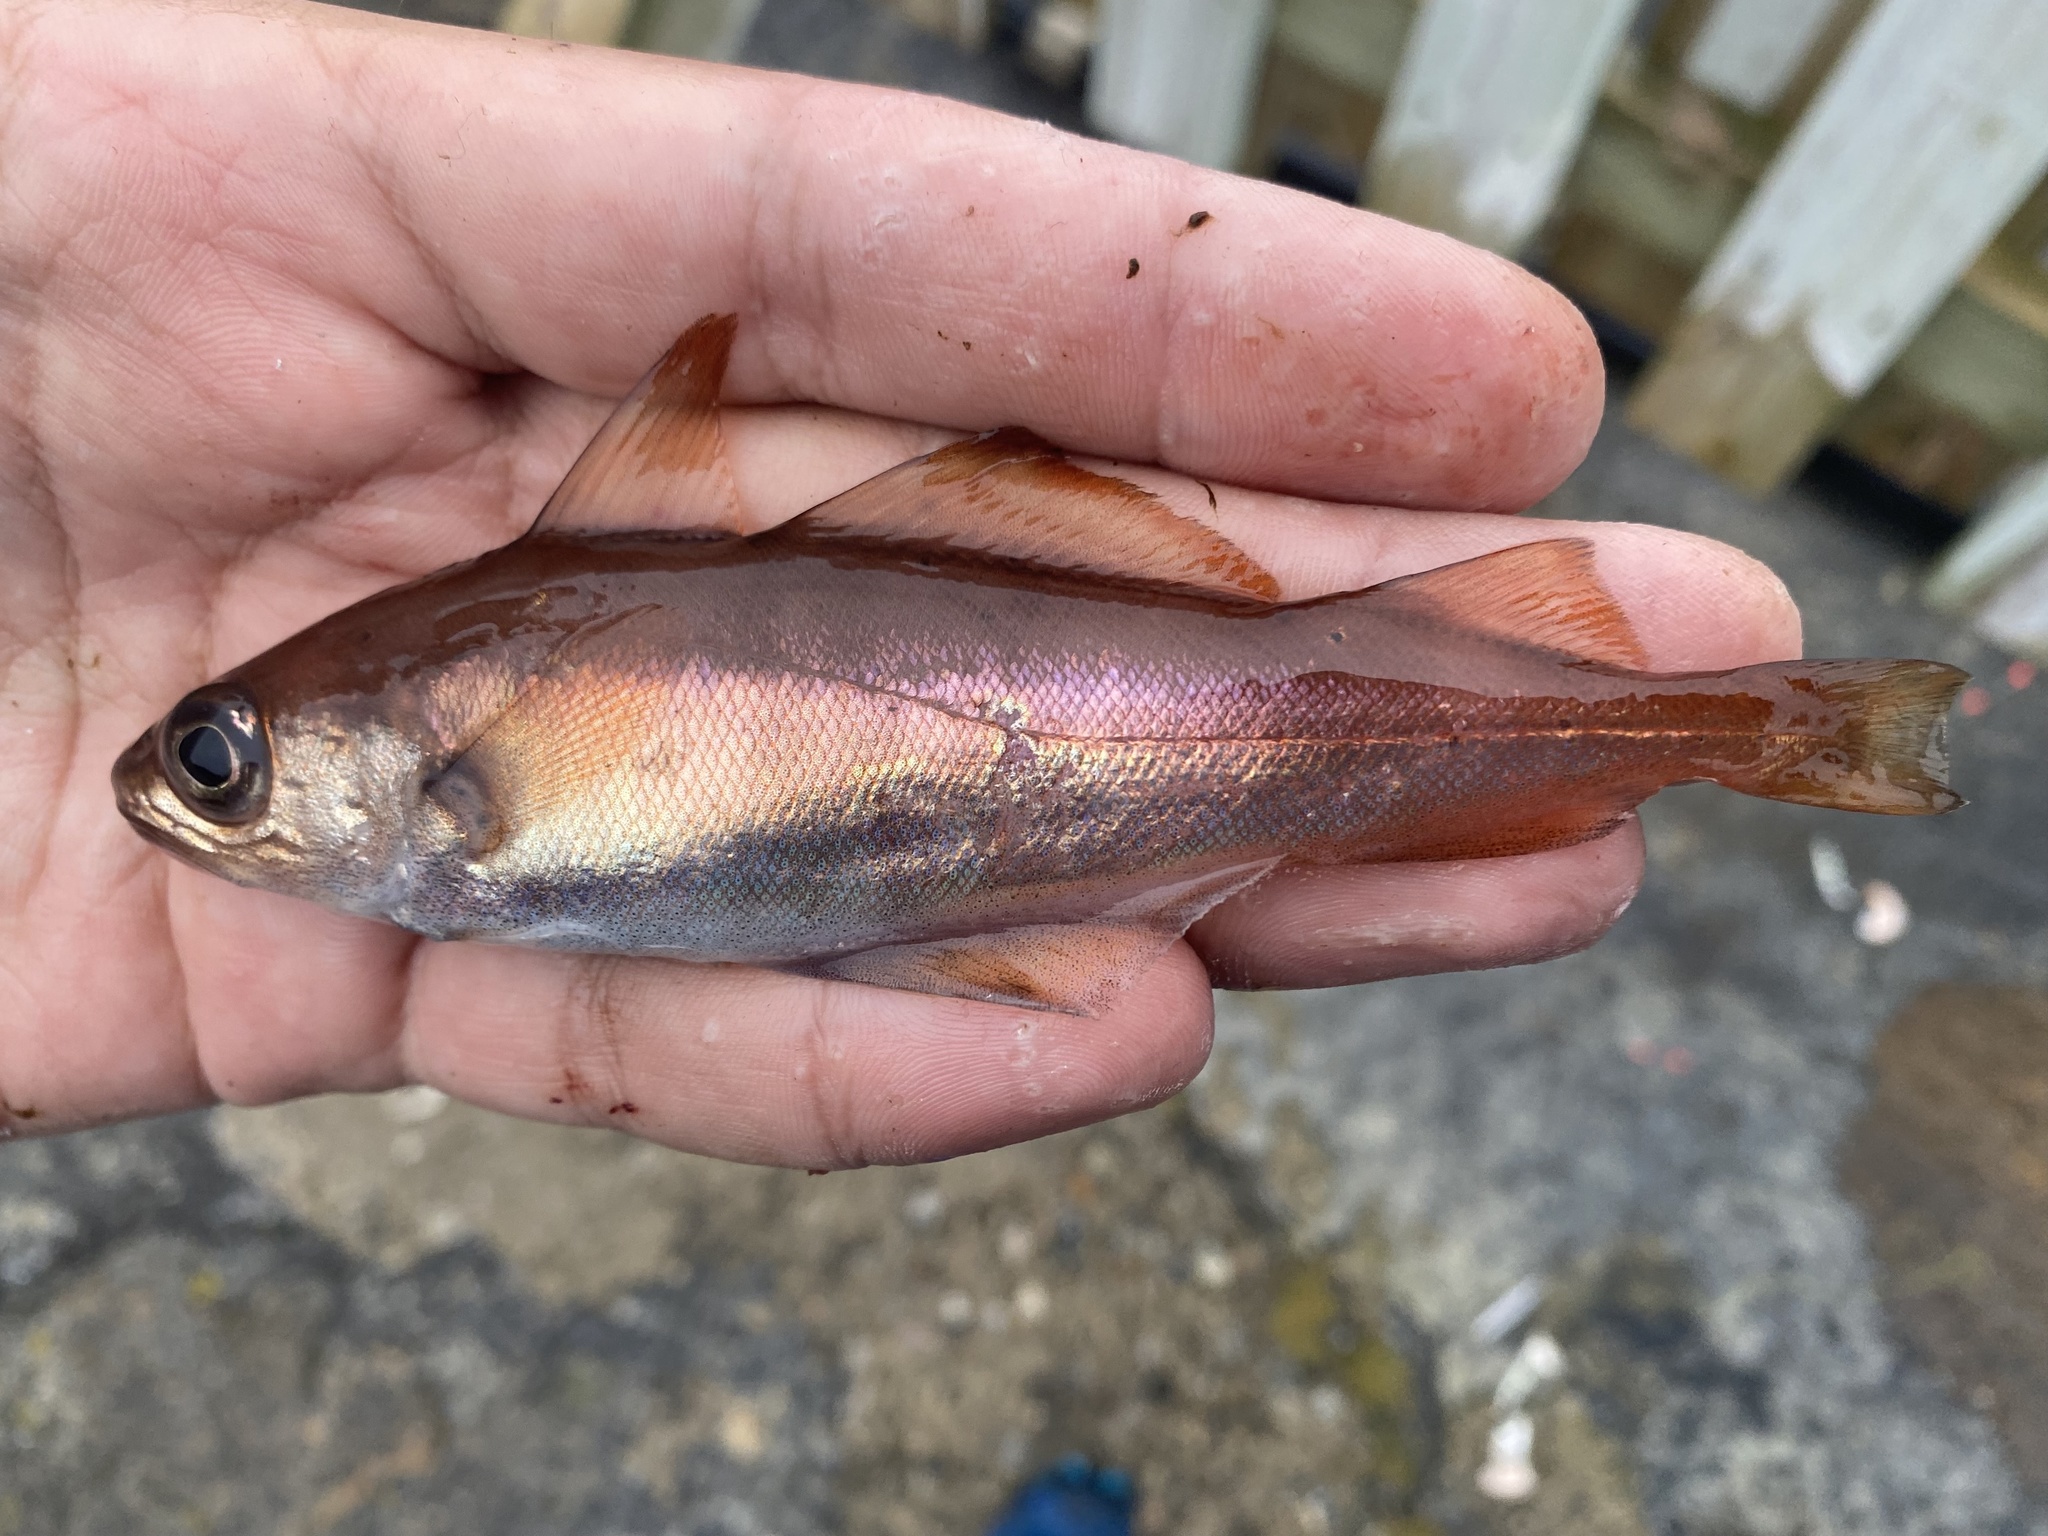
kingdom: Animalia
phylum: Chordata
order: Gadiformes
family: Gadidae
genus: Trisopterus
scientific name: Trisopterus minutus
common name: Poor cod
